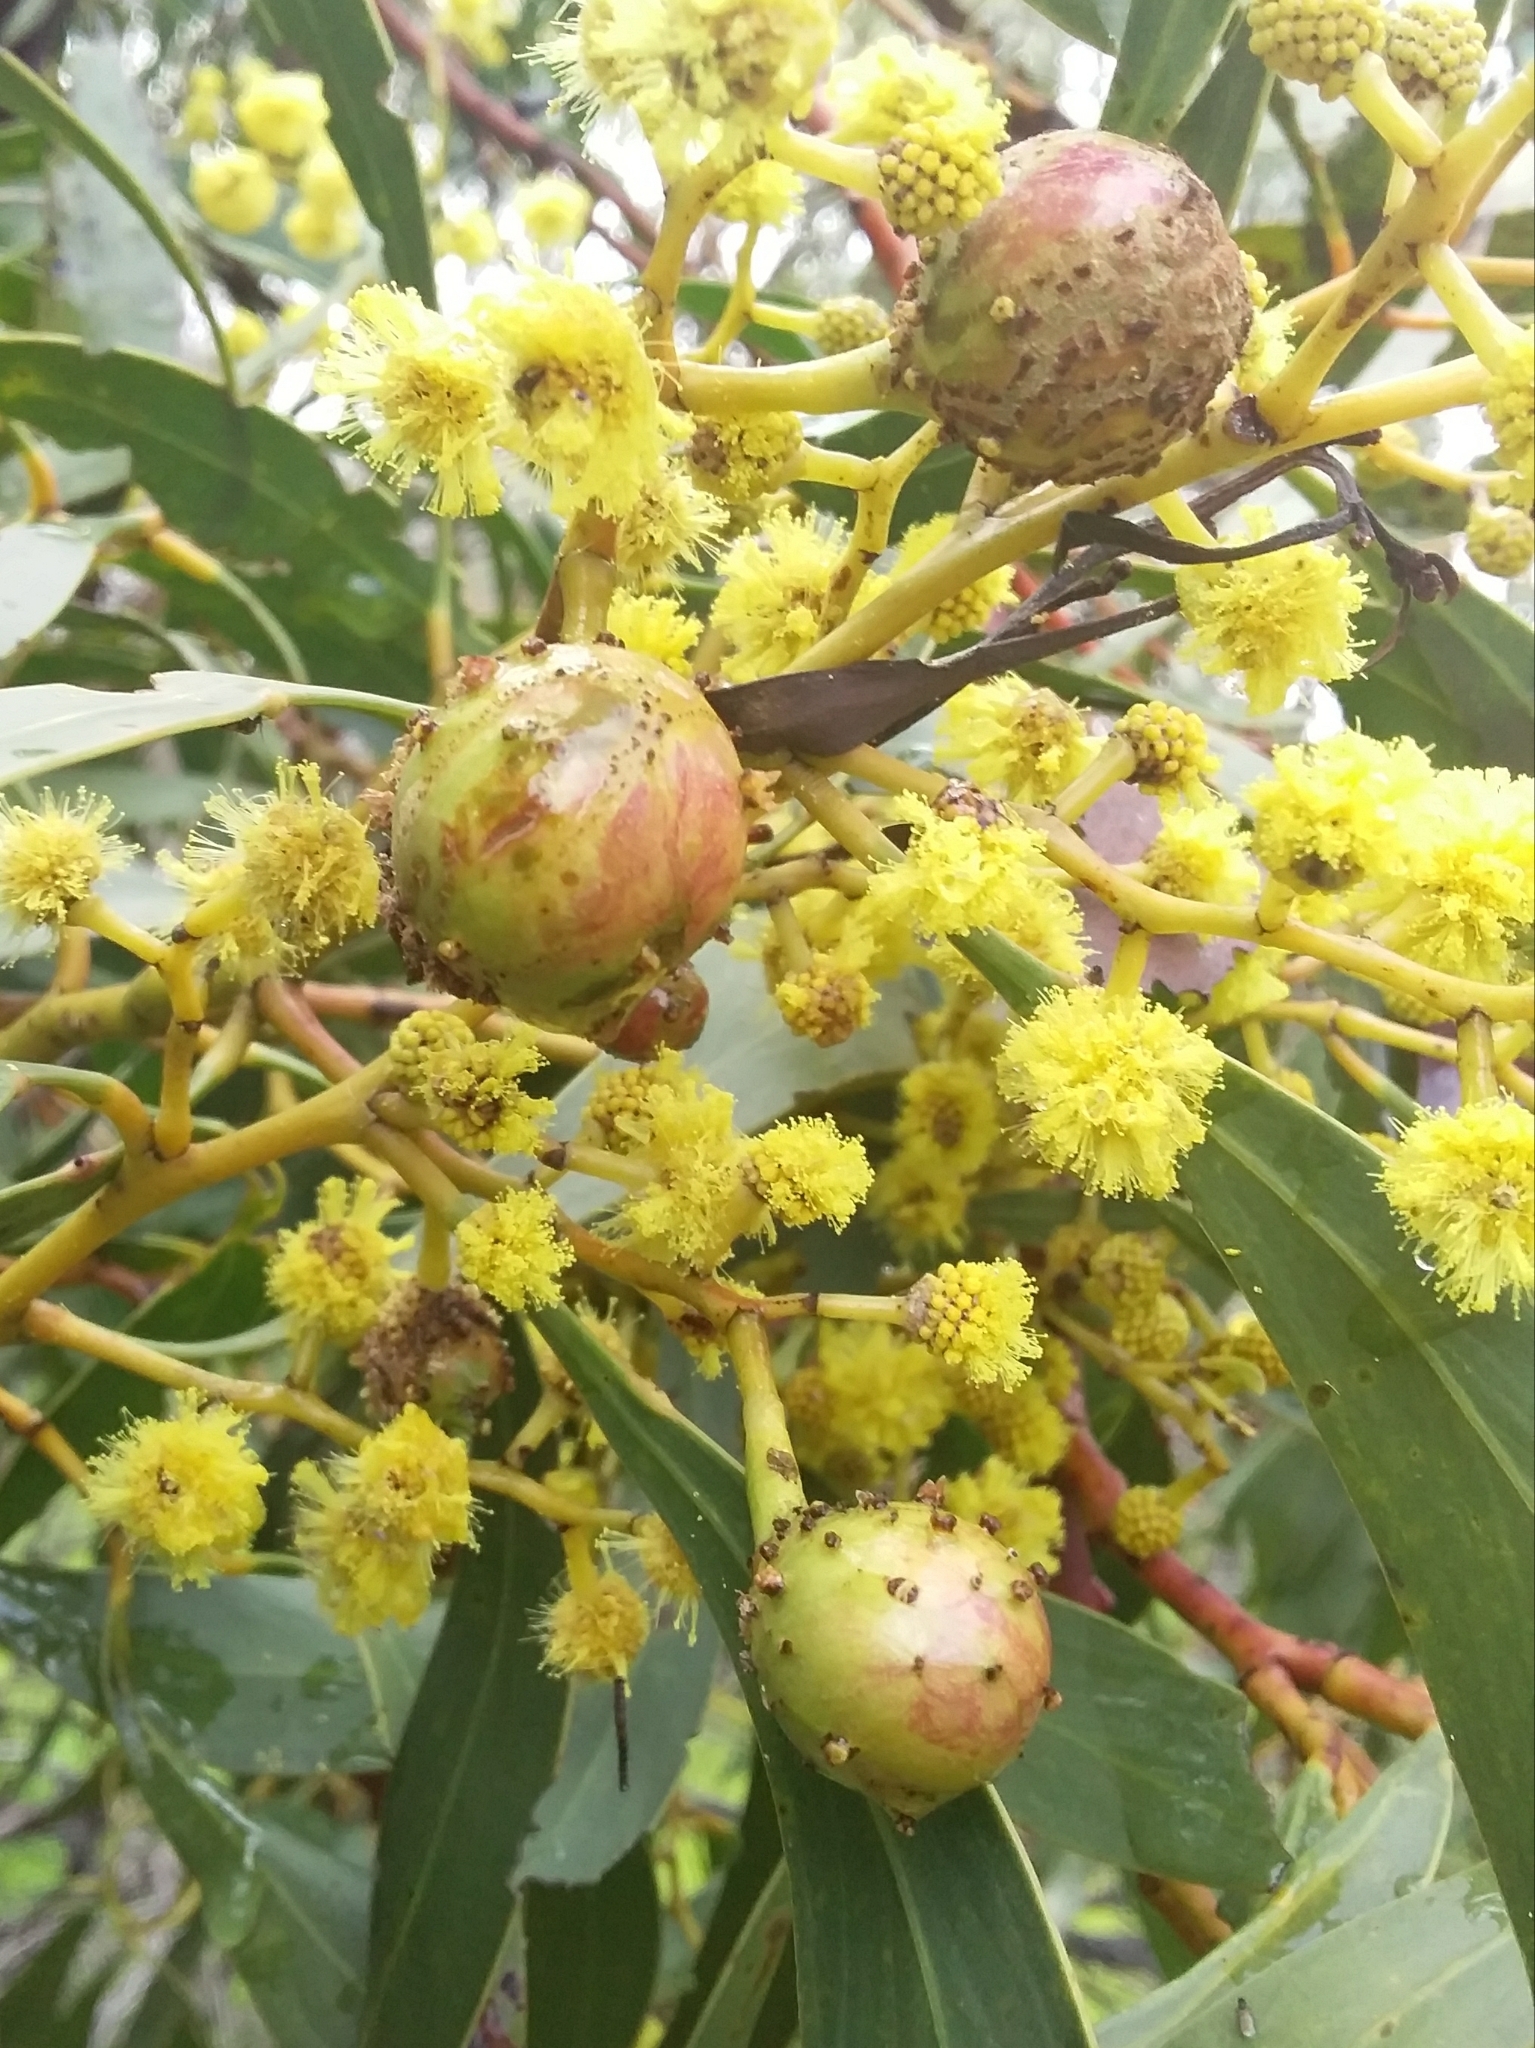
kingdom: Animalia
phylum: Arthropoda
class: Insecta
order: Hymenoptera
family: Pteromalidae
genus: Trichilogaster
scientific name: Trichilogaster signiventris
